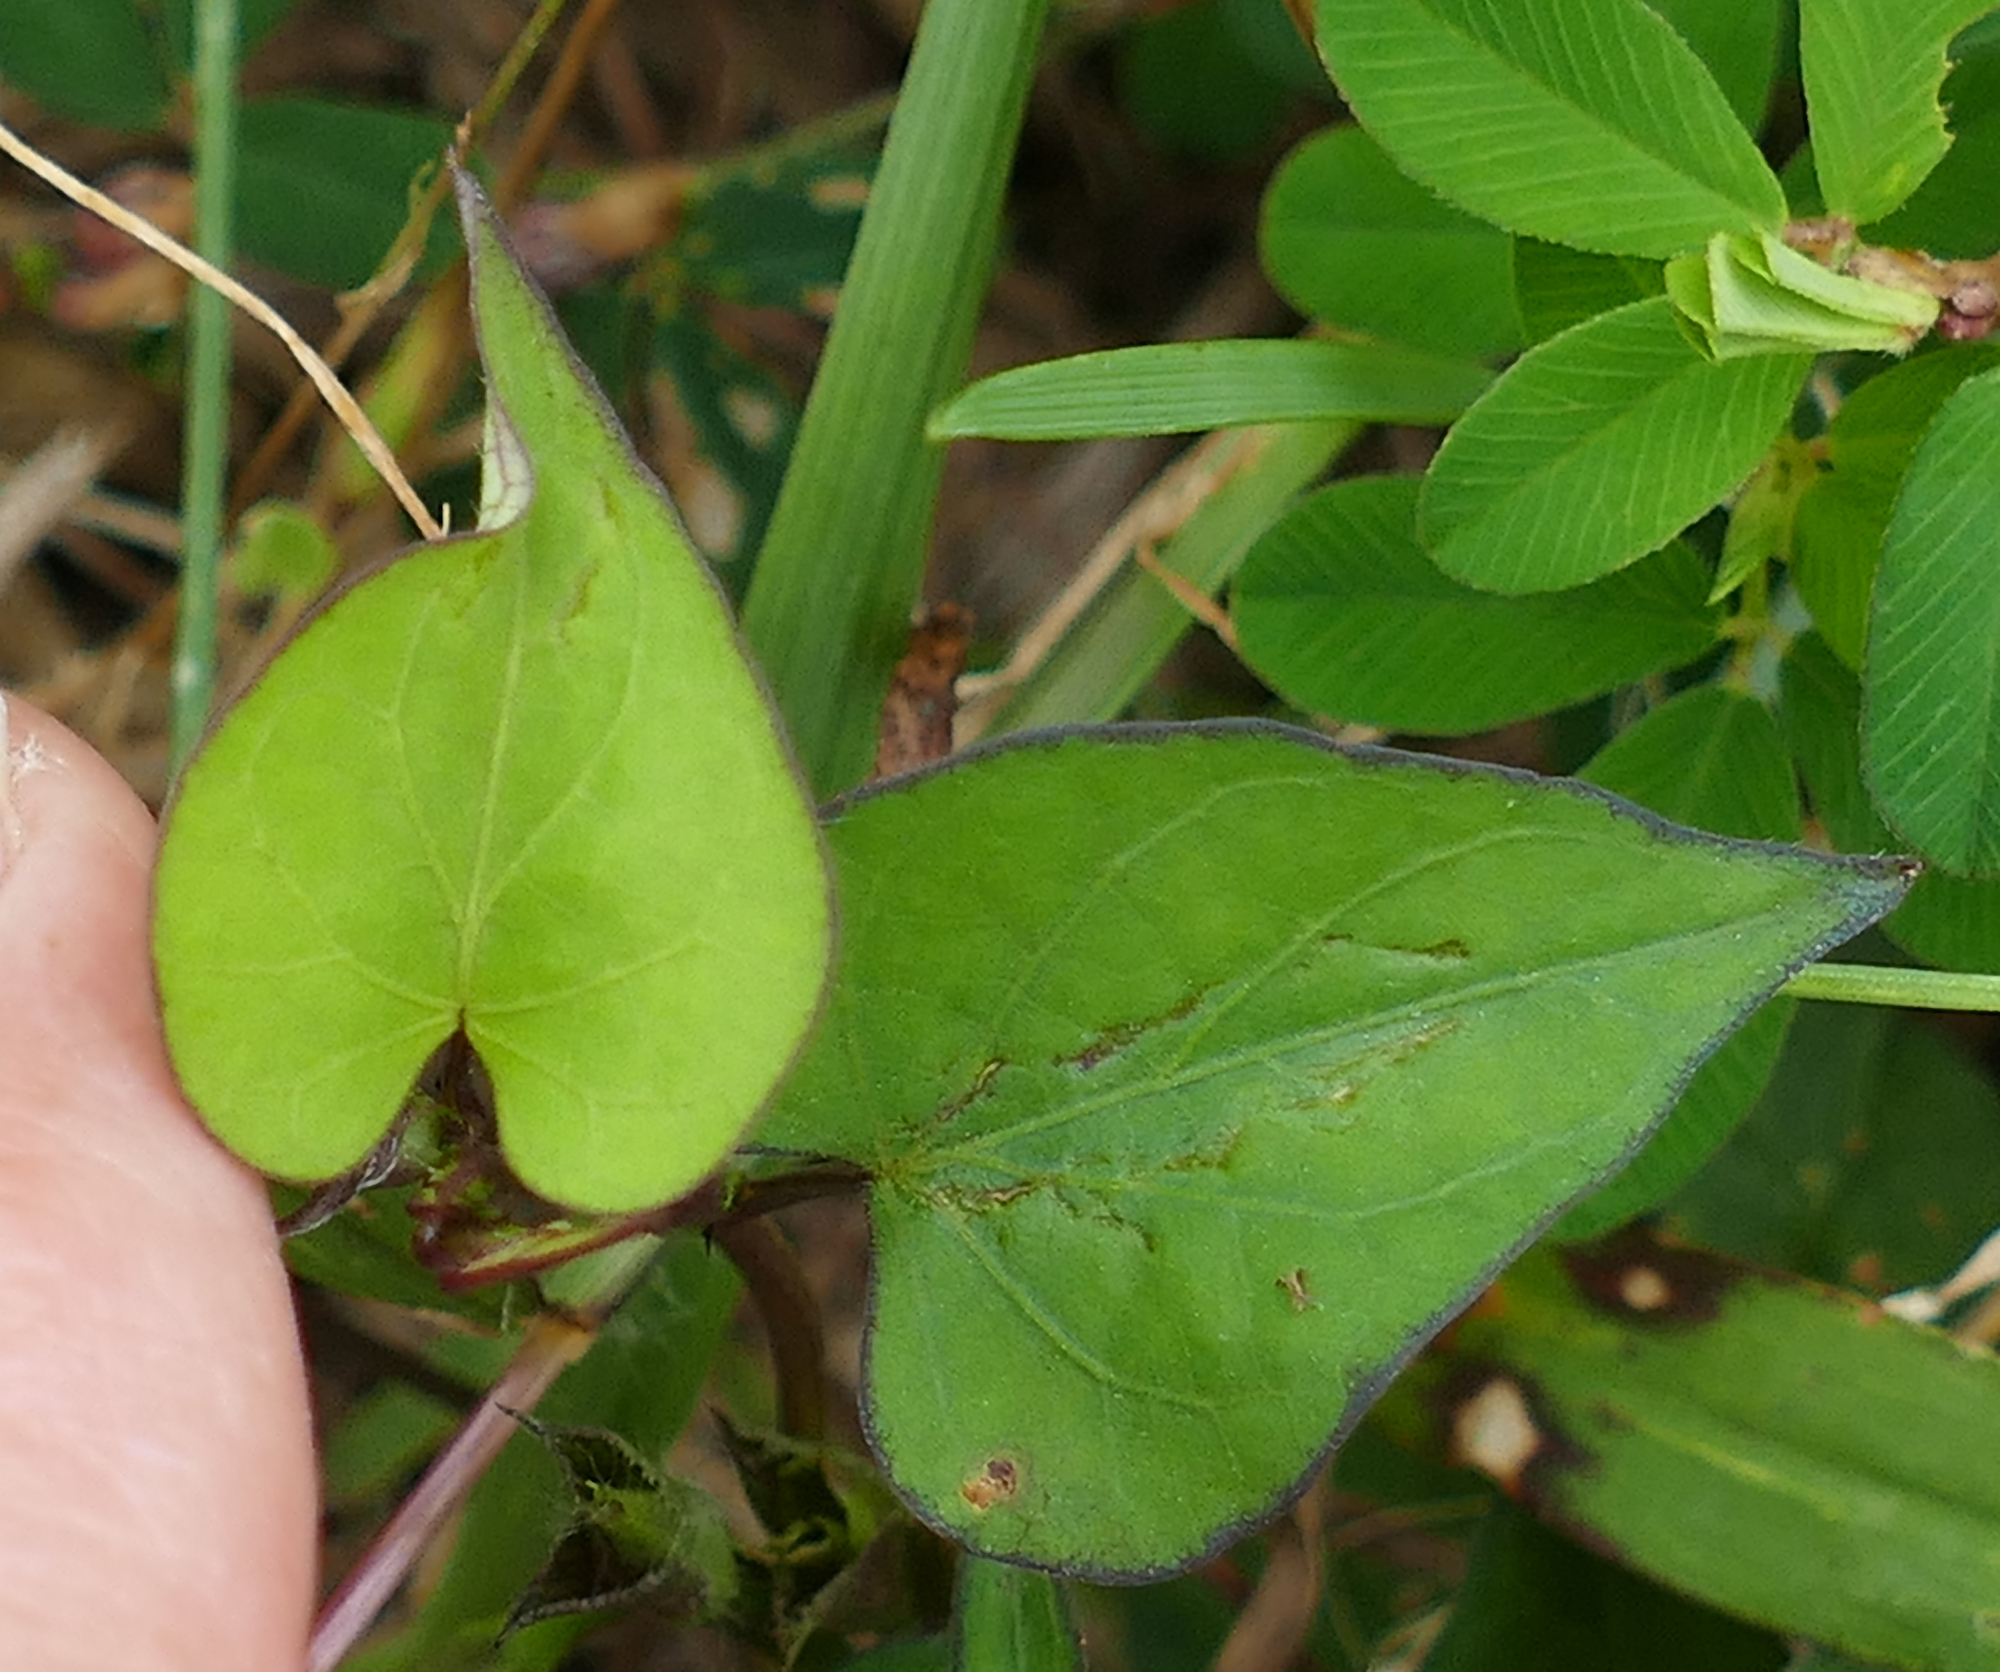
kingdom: Plantae
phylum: Tracheophyta
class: Magnoliopsida
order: Solanales
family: Convolvulaceae
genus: Ipomoea
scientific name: Ipomoea lacunosa
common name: White morning-glory
